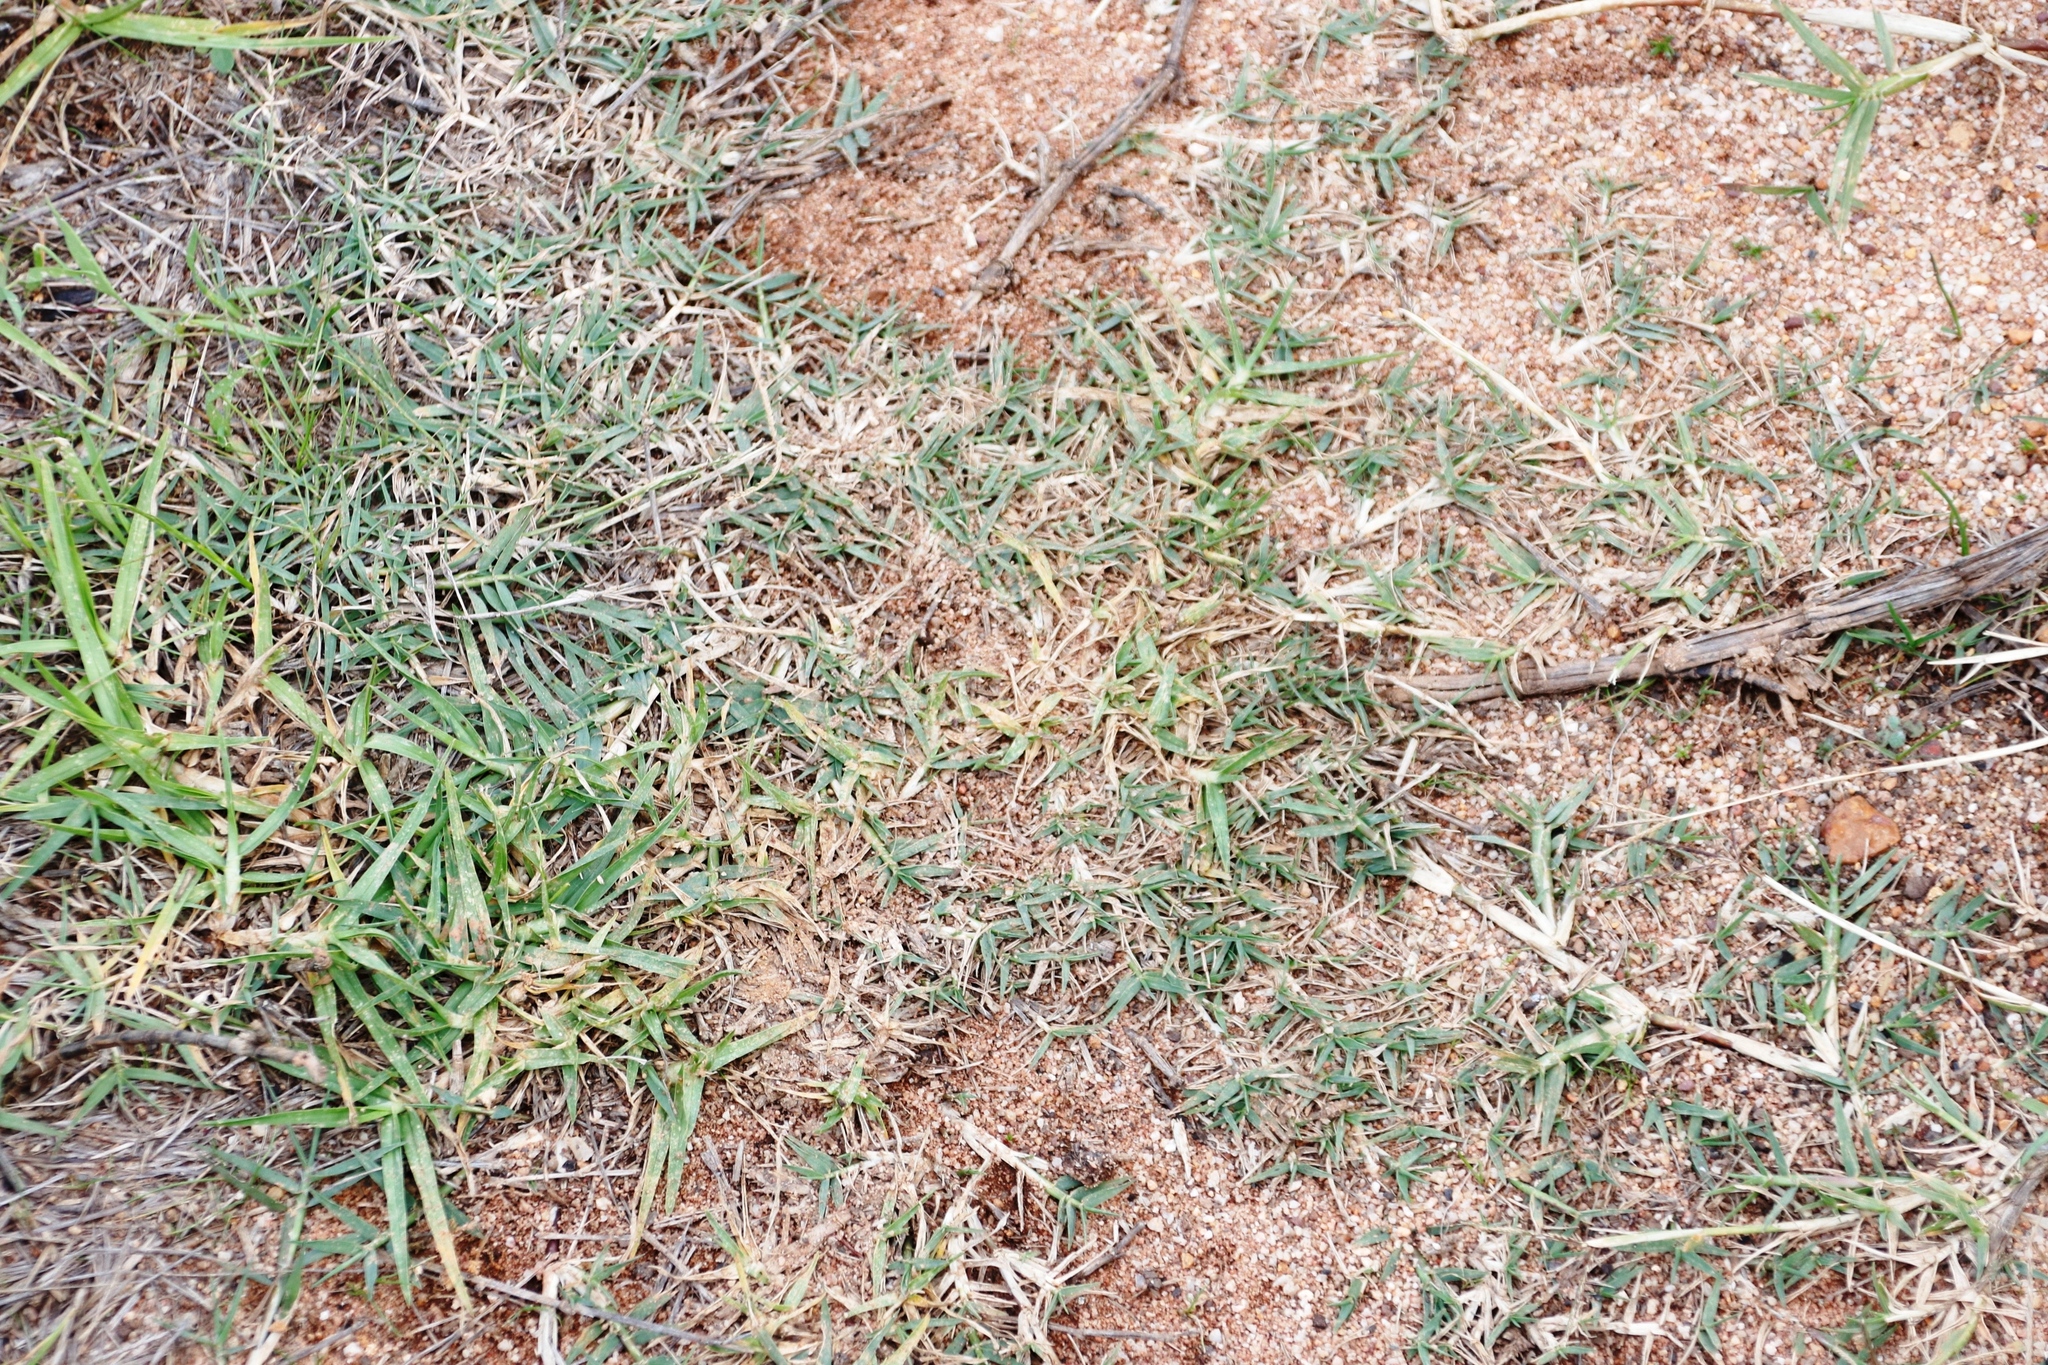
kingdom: Plantae
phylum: Tracheophyta
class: Liliopsida
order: Poales
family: Poaceae
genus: Cynodon
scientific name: Cynodon dactylon
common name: Bermuda grass
